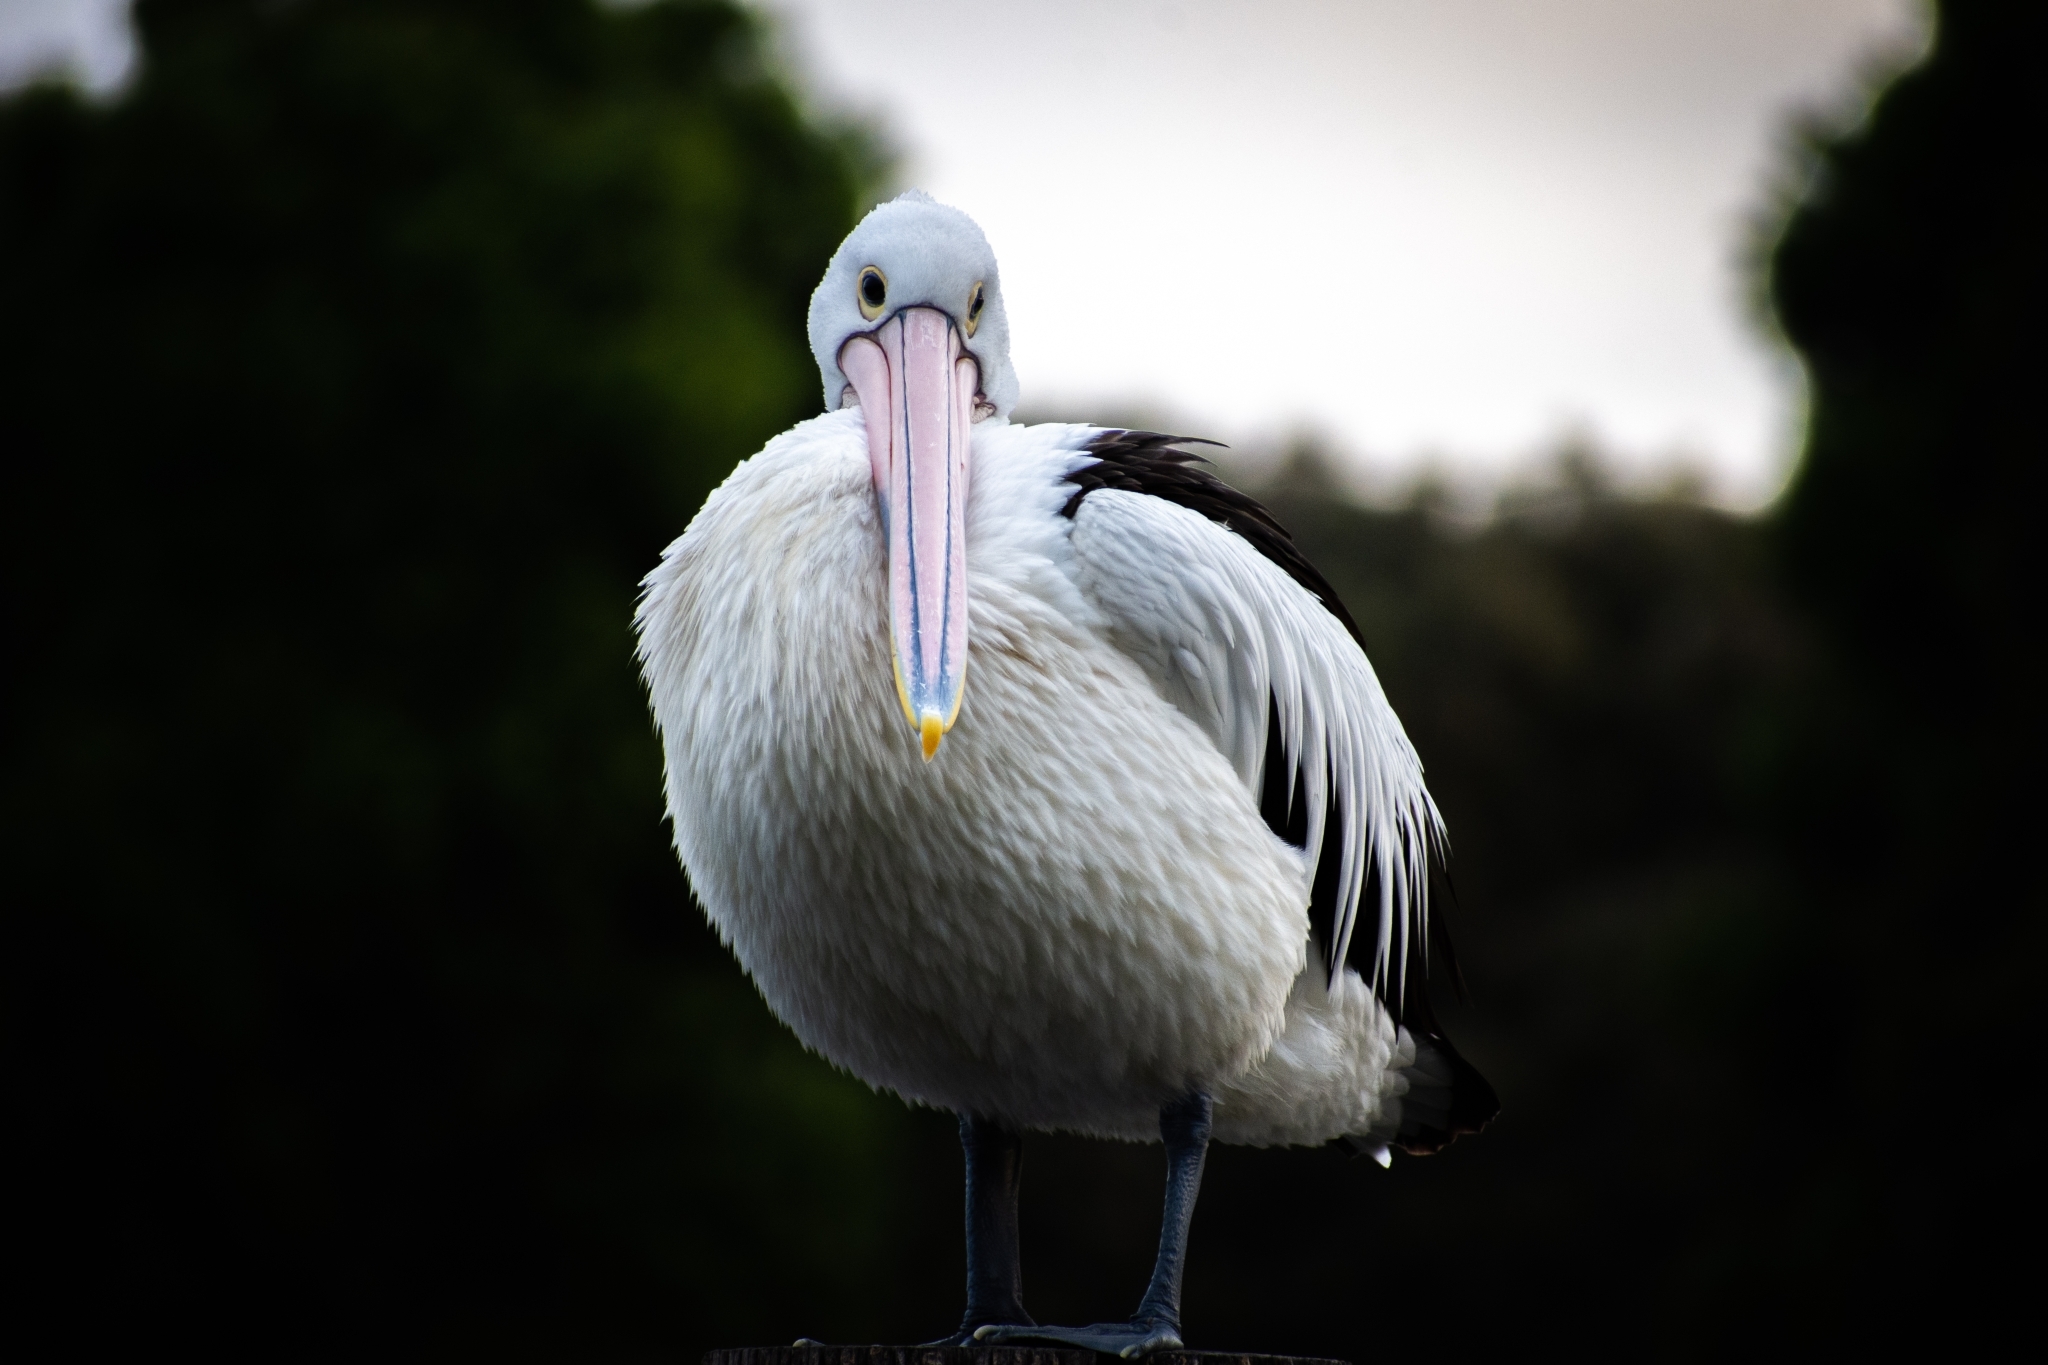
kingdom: Animalia
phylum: Chordata
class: Aves
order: Pelecaniformes
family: Pelecanidae
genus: Pelecanus
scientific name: Pelecanus conspicillatus
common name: Australian pelican
